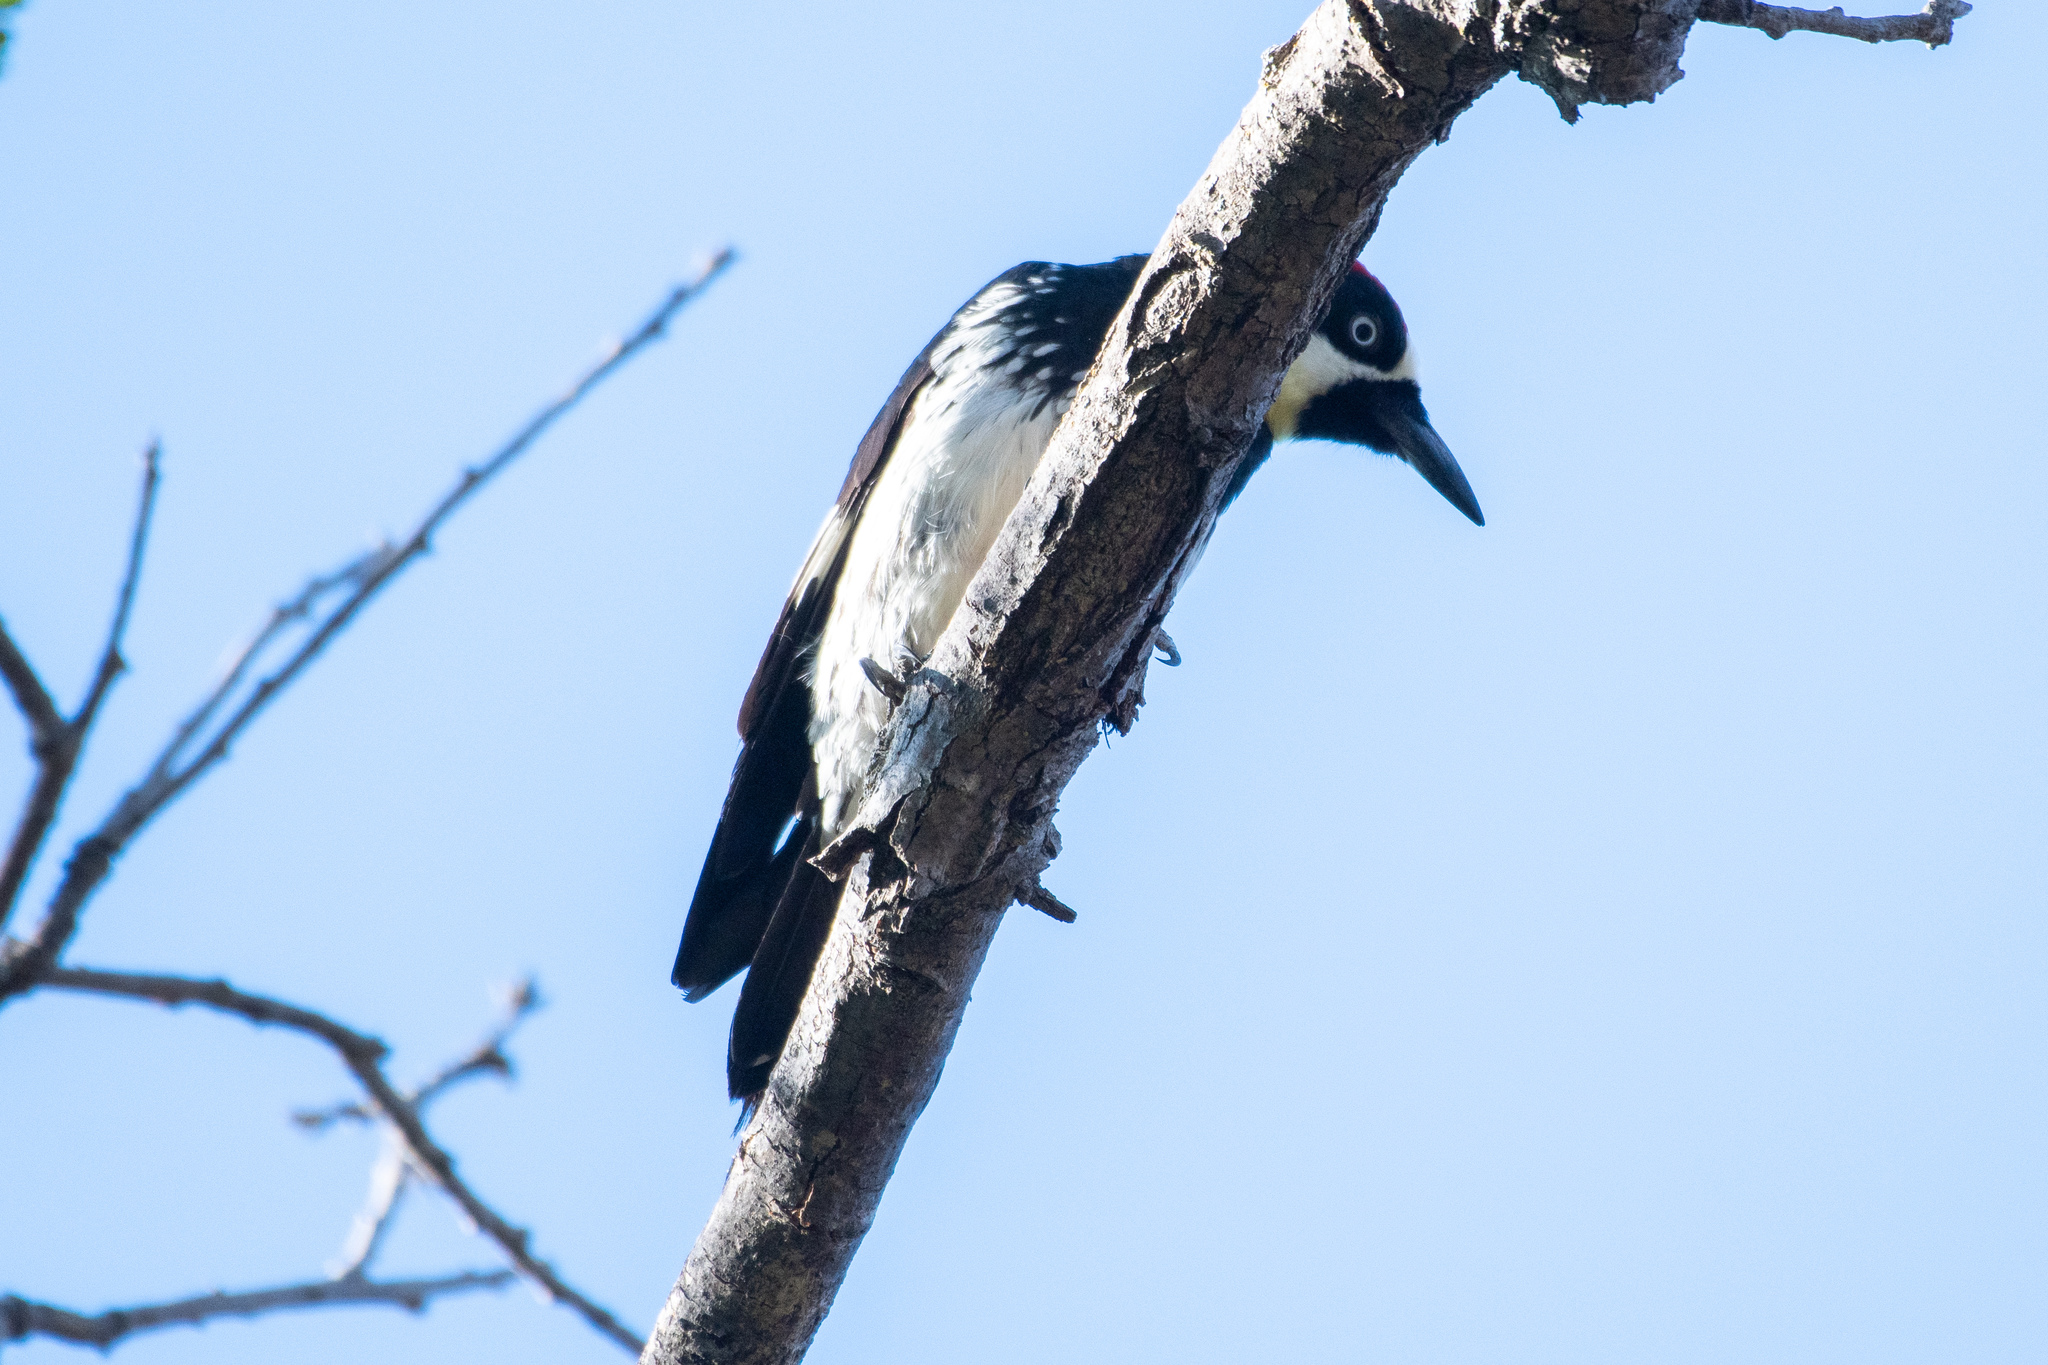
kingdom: Animalia
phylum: Chordata
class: Aves
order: Piciformes
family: Picidae
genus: Melanerpes
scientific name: Melanerpes formicivorus
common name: Acorn woodpecker
